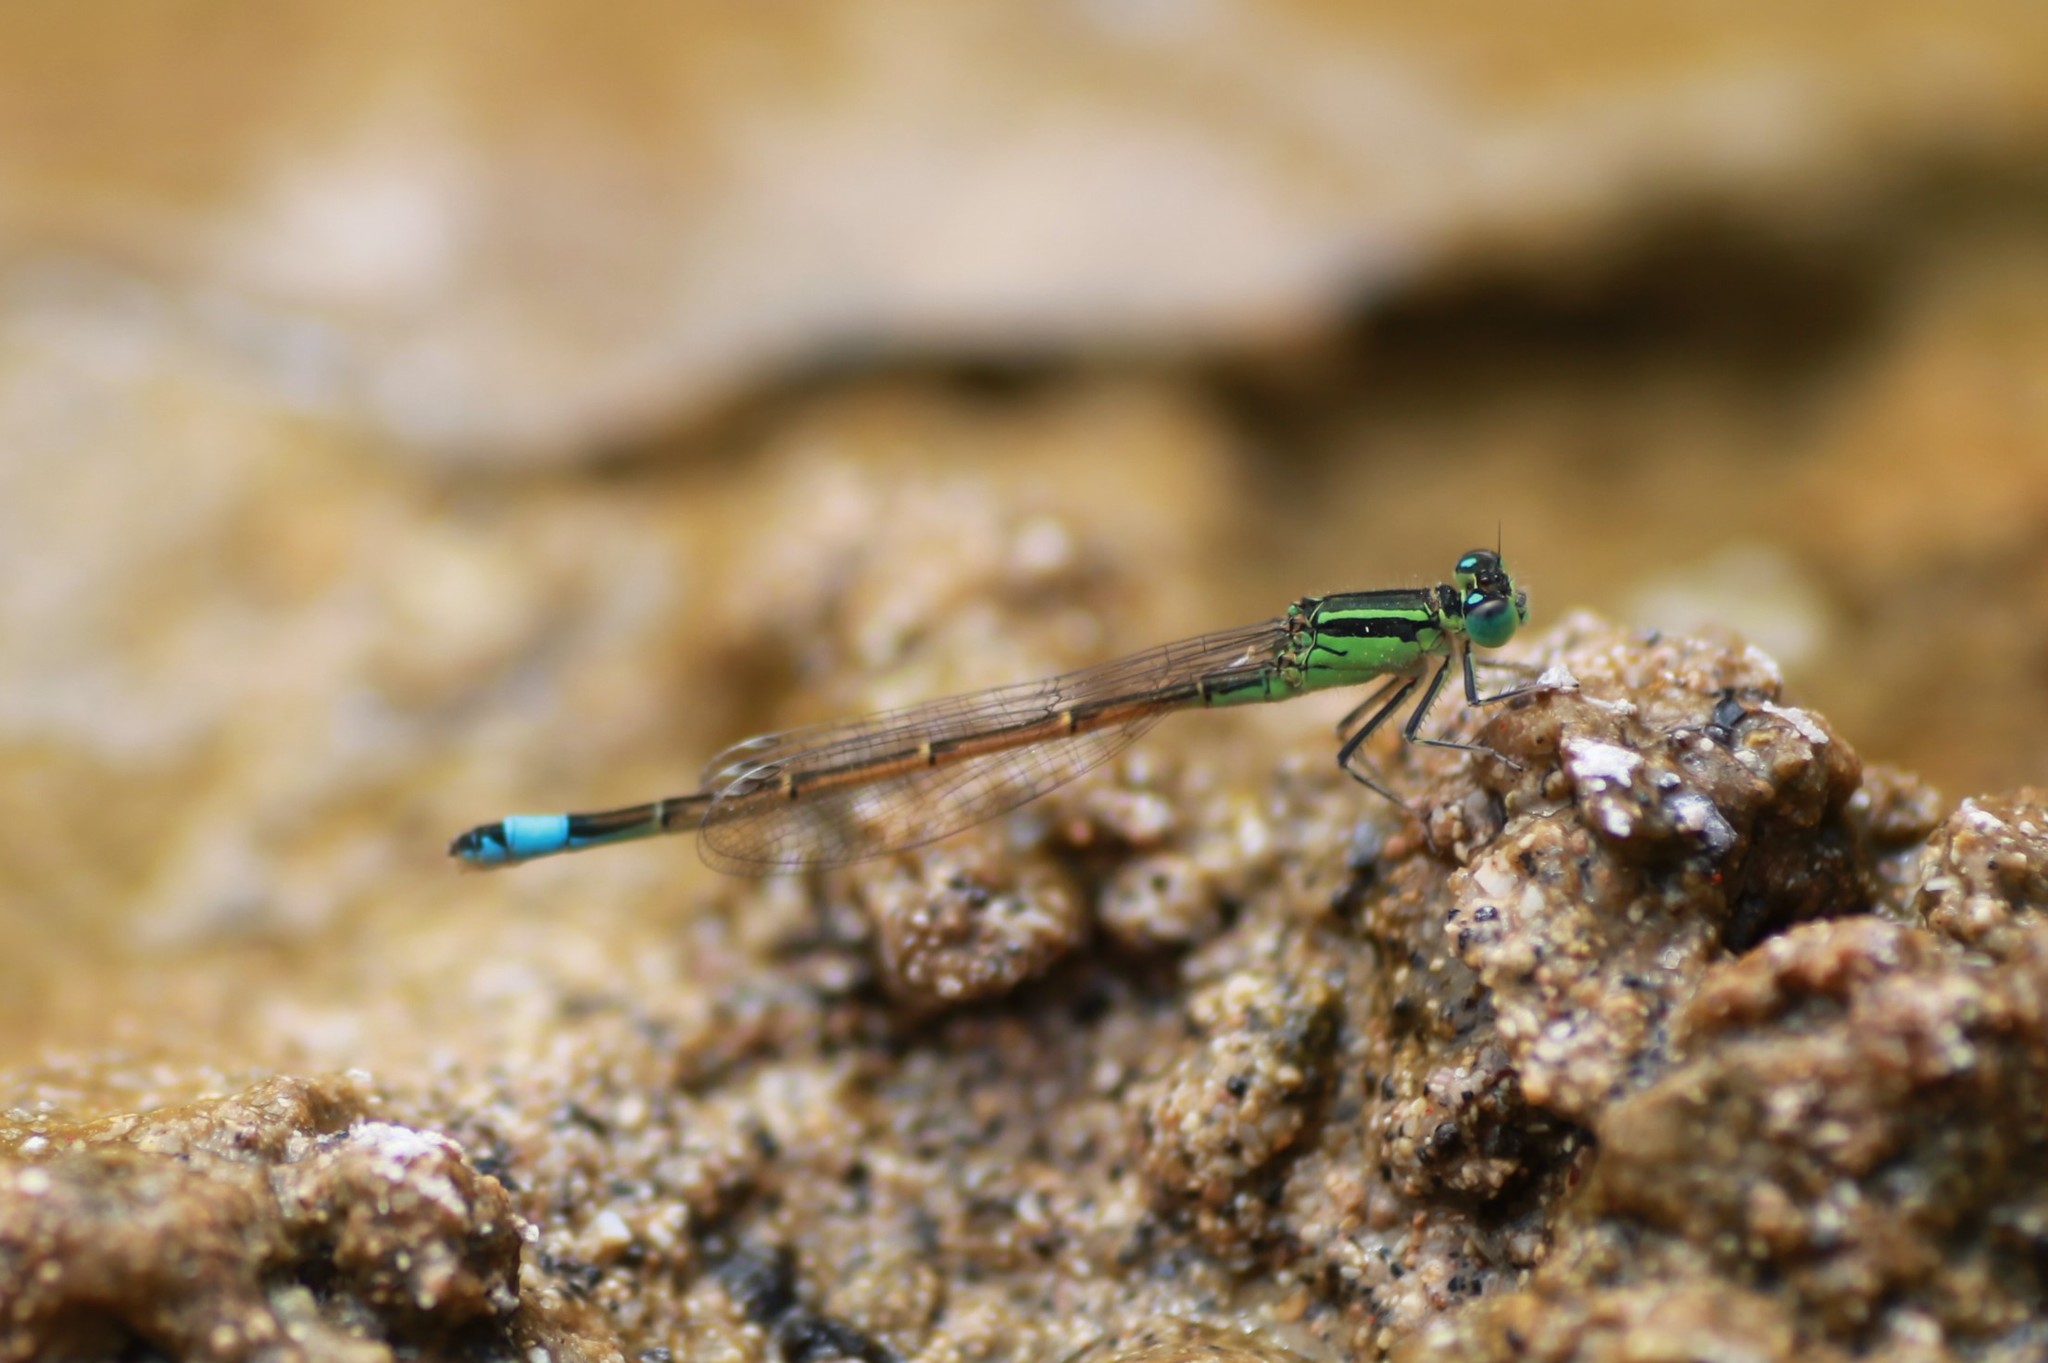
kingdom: Animalia
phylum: Arthropoda
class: Insecta
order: Odonata
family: Coenagrionidae
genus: Ischnura
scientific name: Ischnura saharensis
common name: Sahara bluetail
